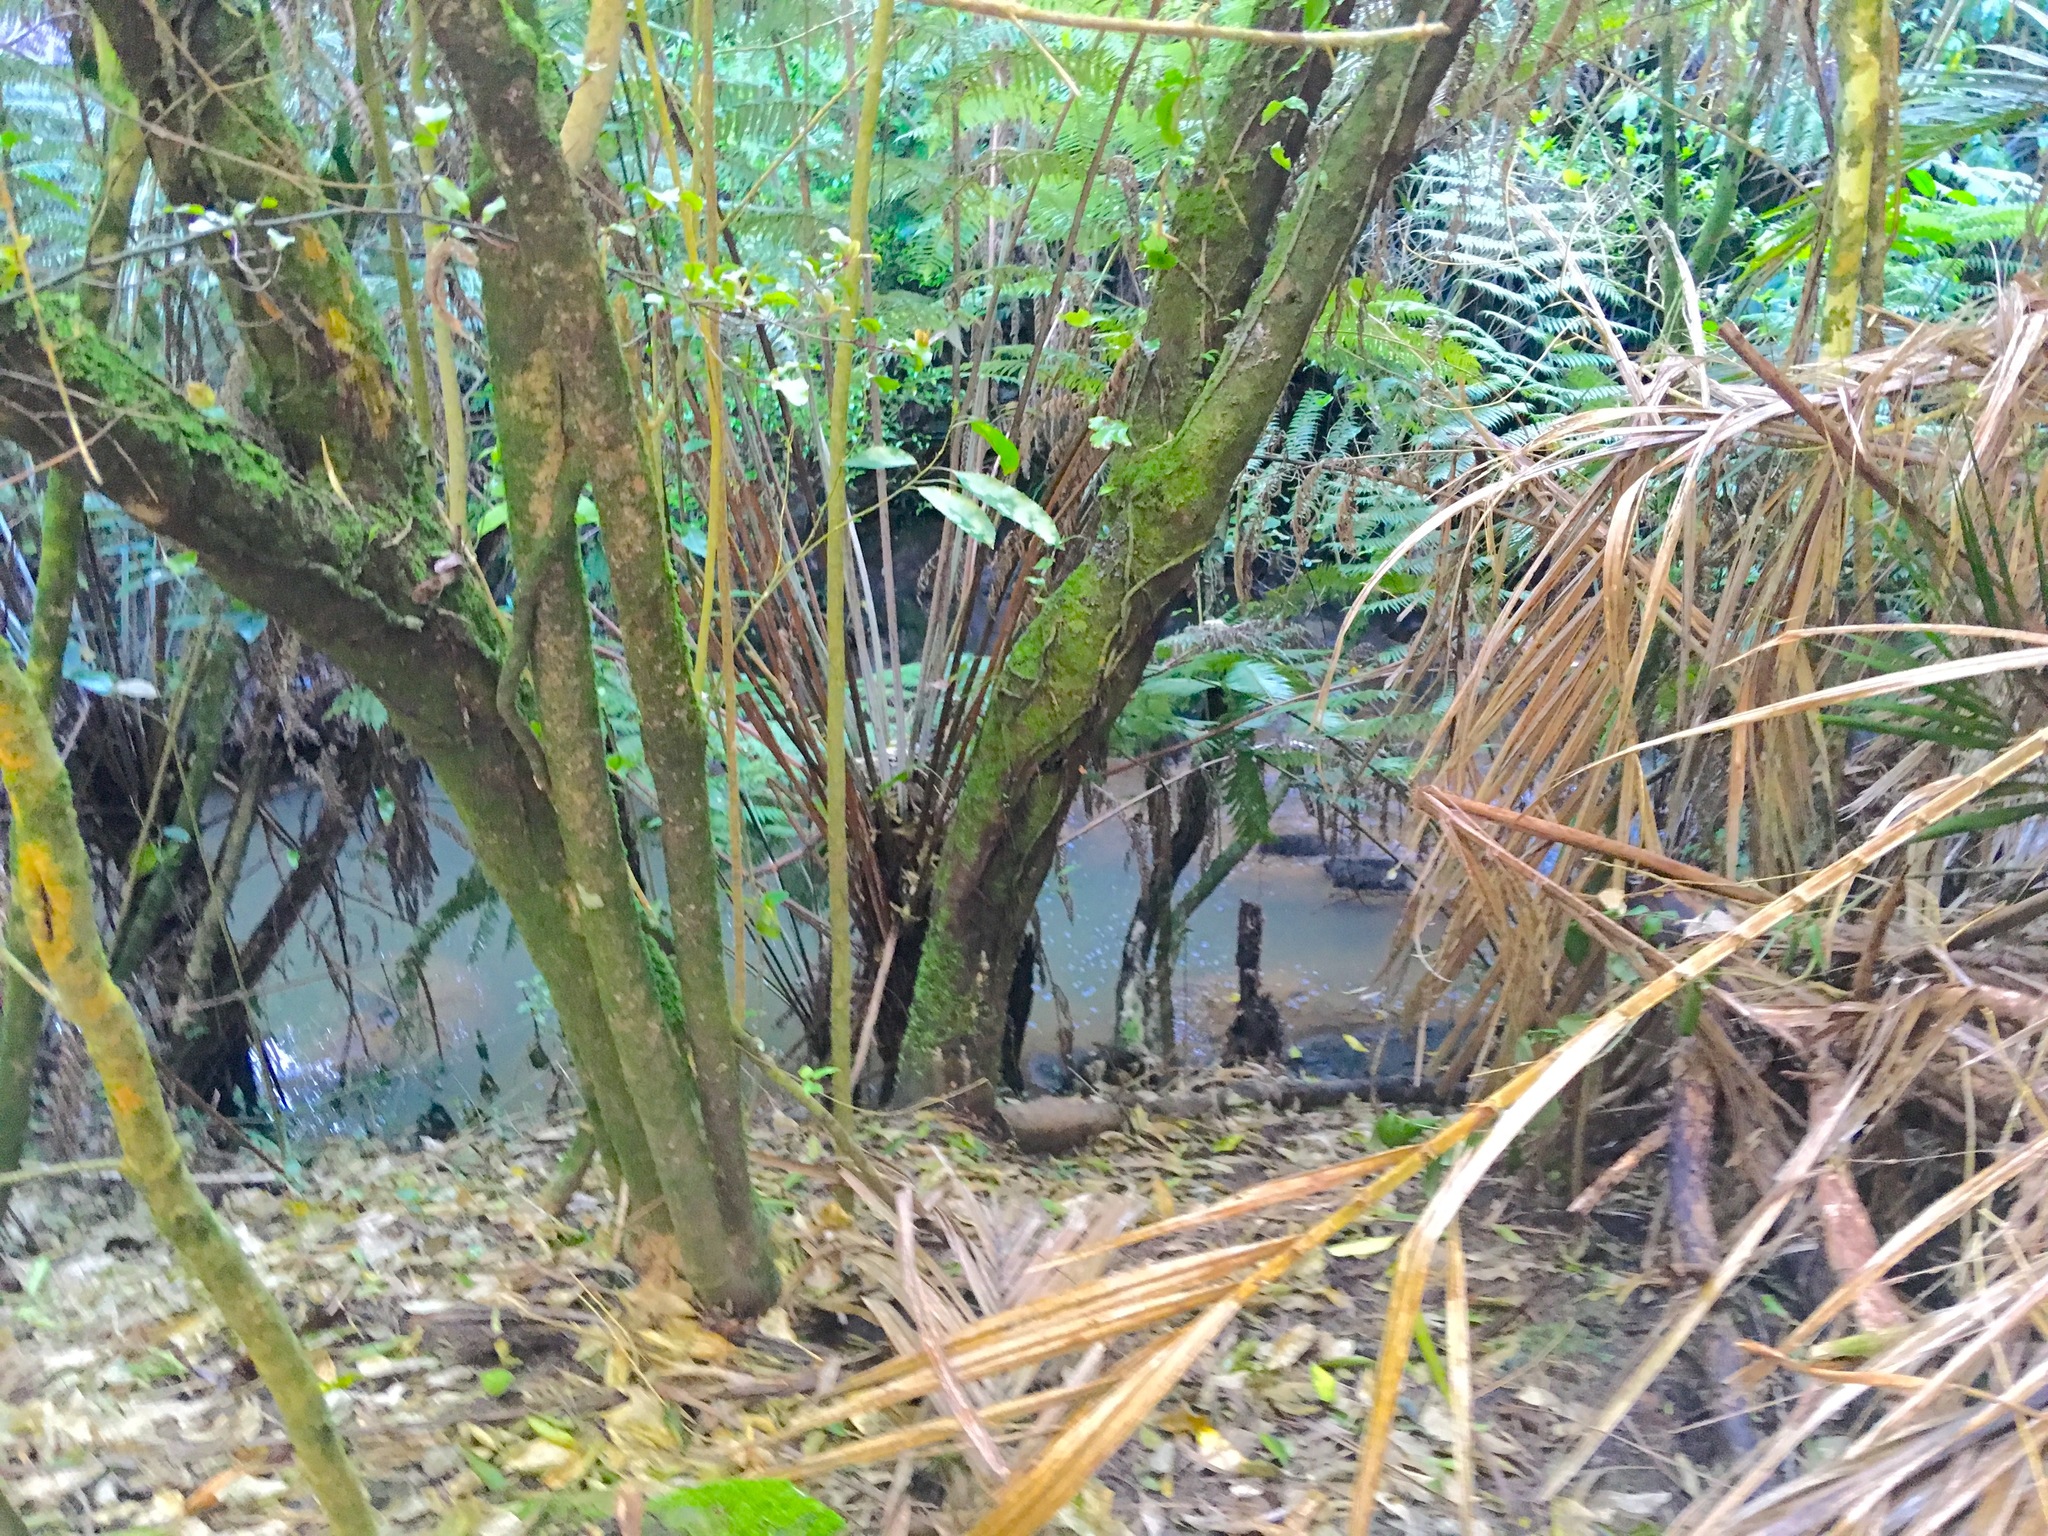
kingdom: Plantae
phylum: Tracheophyta
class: Polypodiopsida
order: Cyatheales
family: Cyatheaceae
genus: Alsophila
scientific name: Alsophila dealbata
